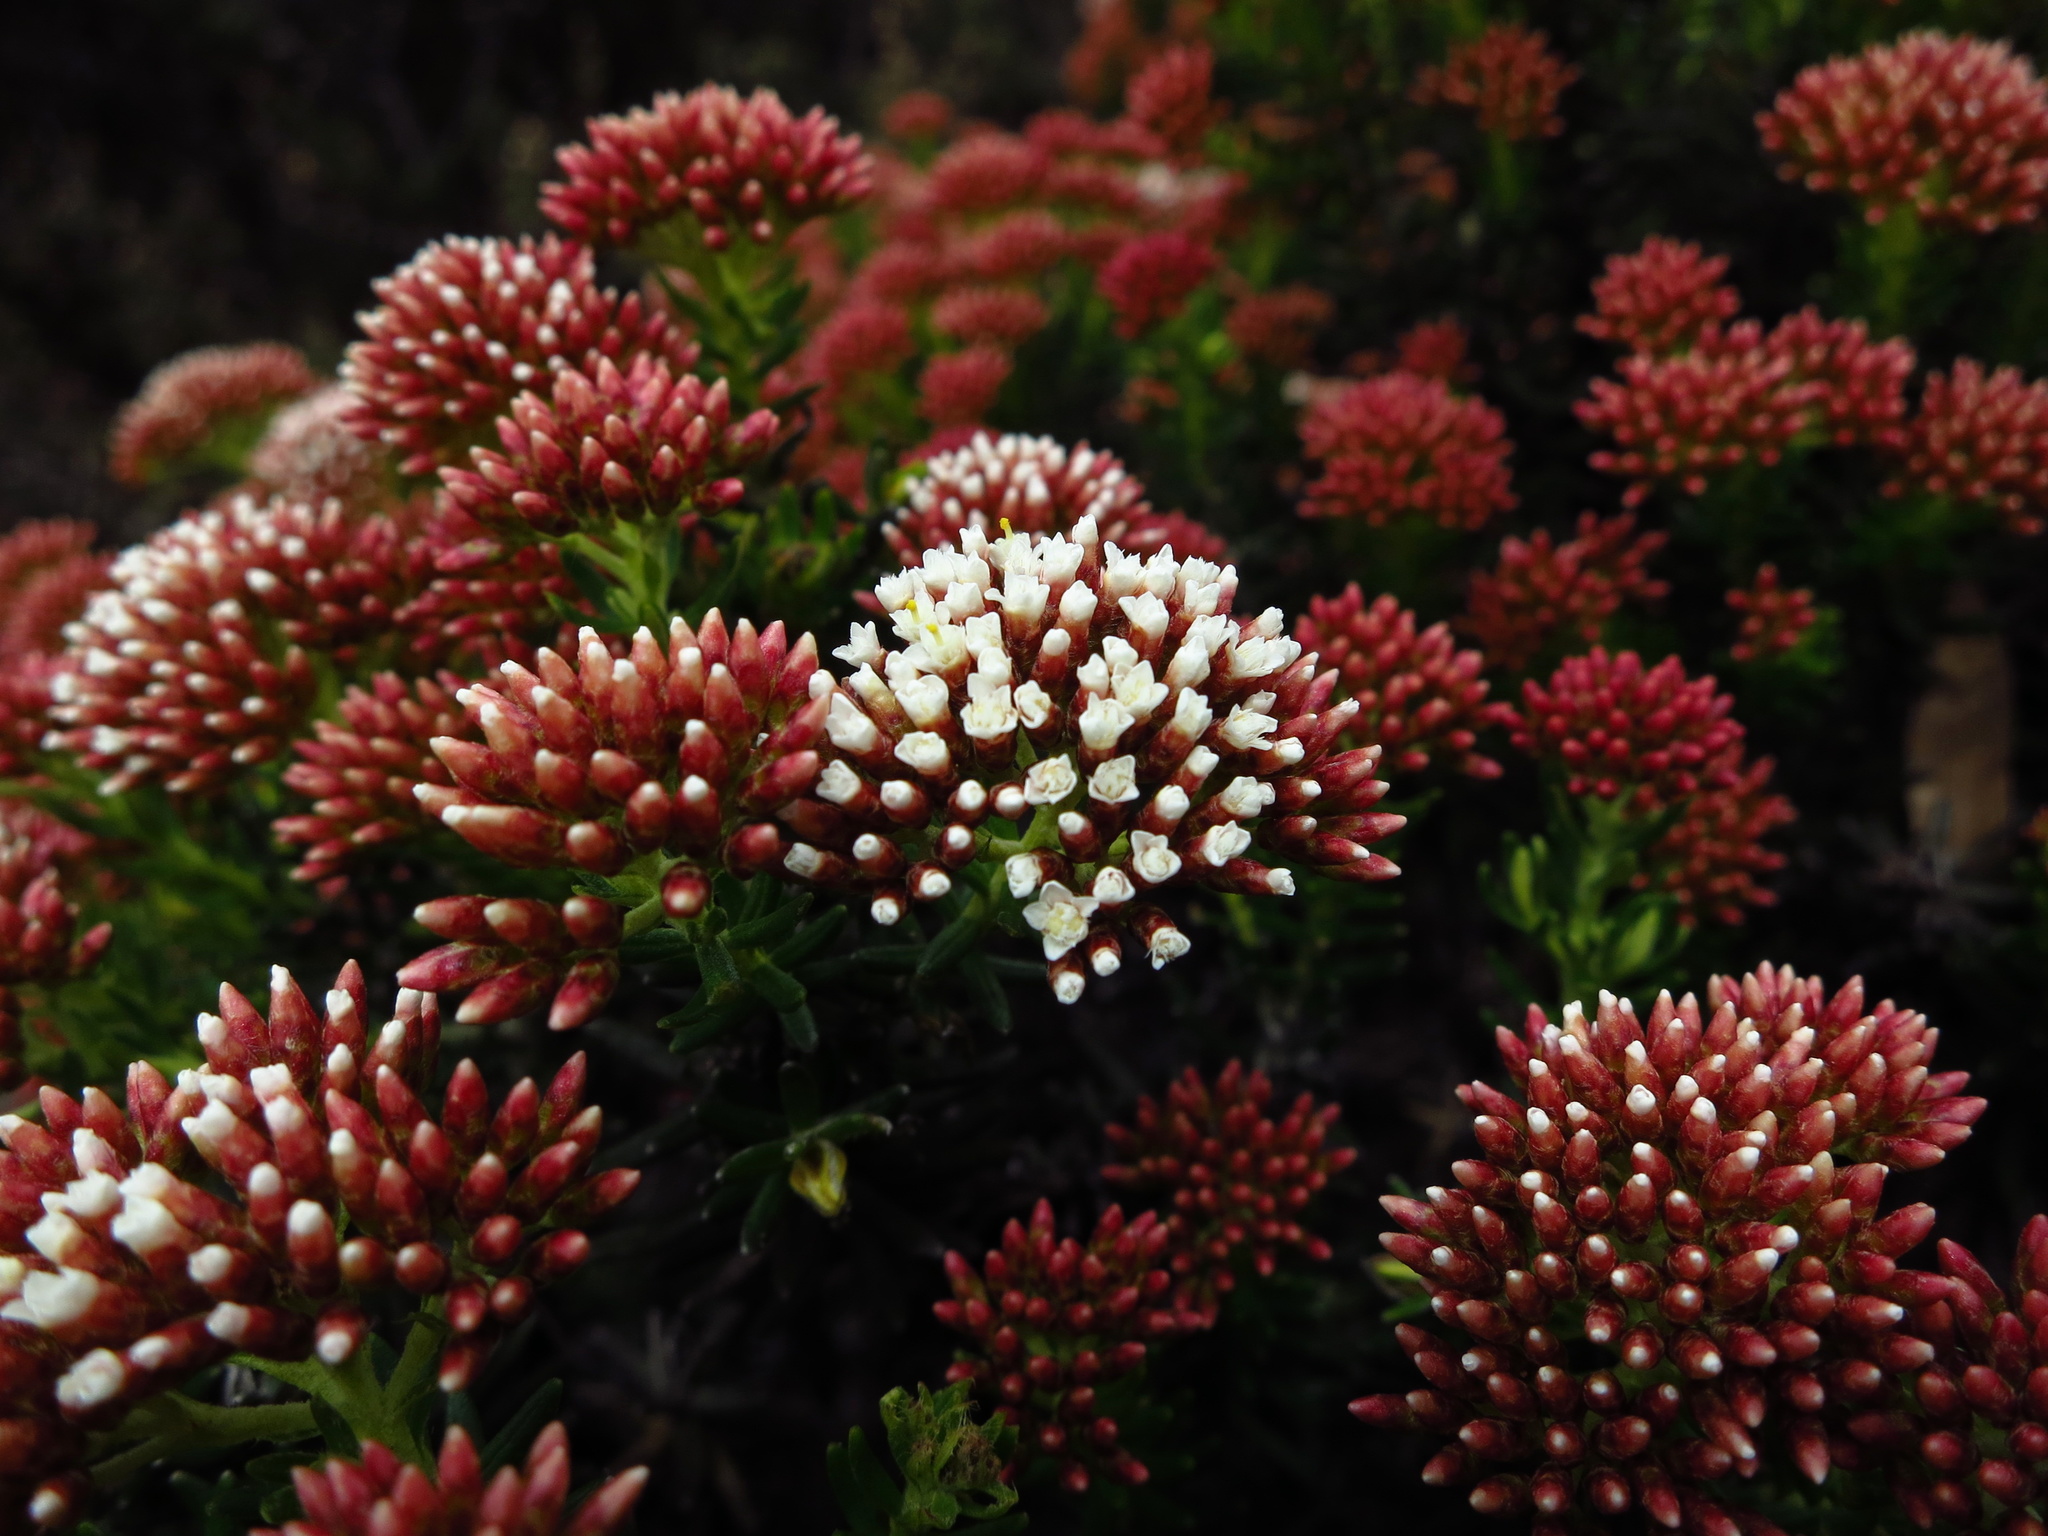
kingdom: Plantae
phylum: Tracheophyta
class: Magnoliopsida
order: Asterales
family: Asteraceae
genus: Ozothamnus
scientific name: Ozothamnus purpurascens
